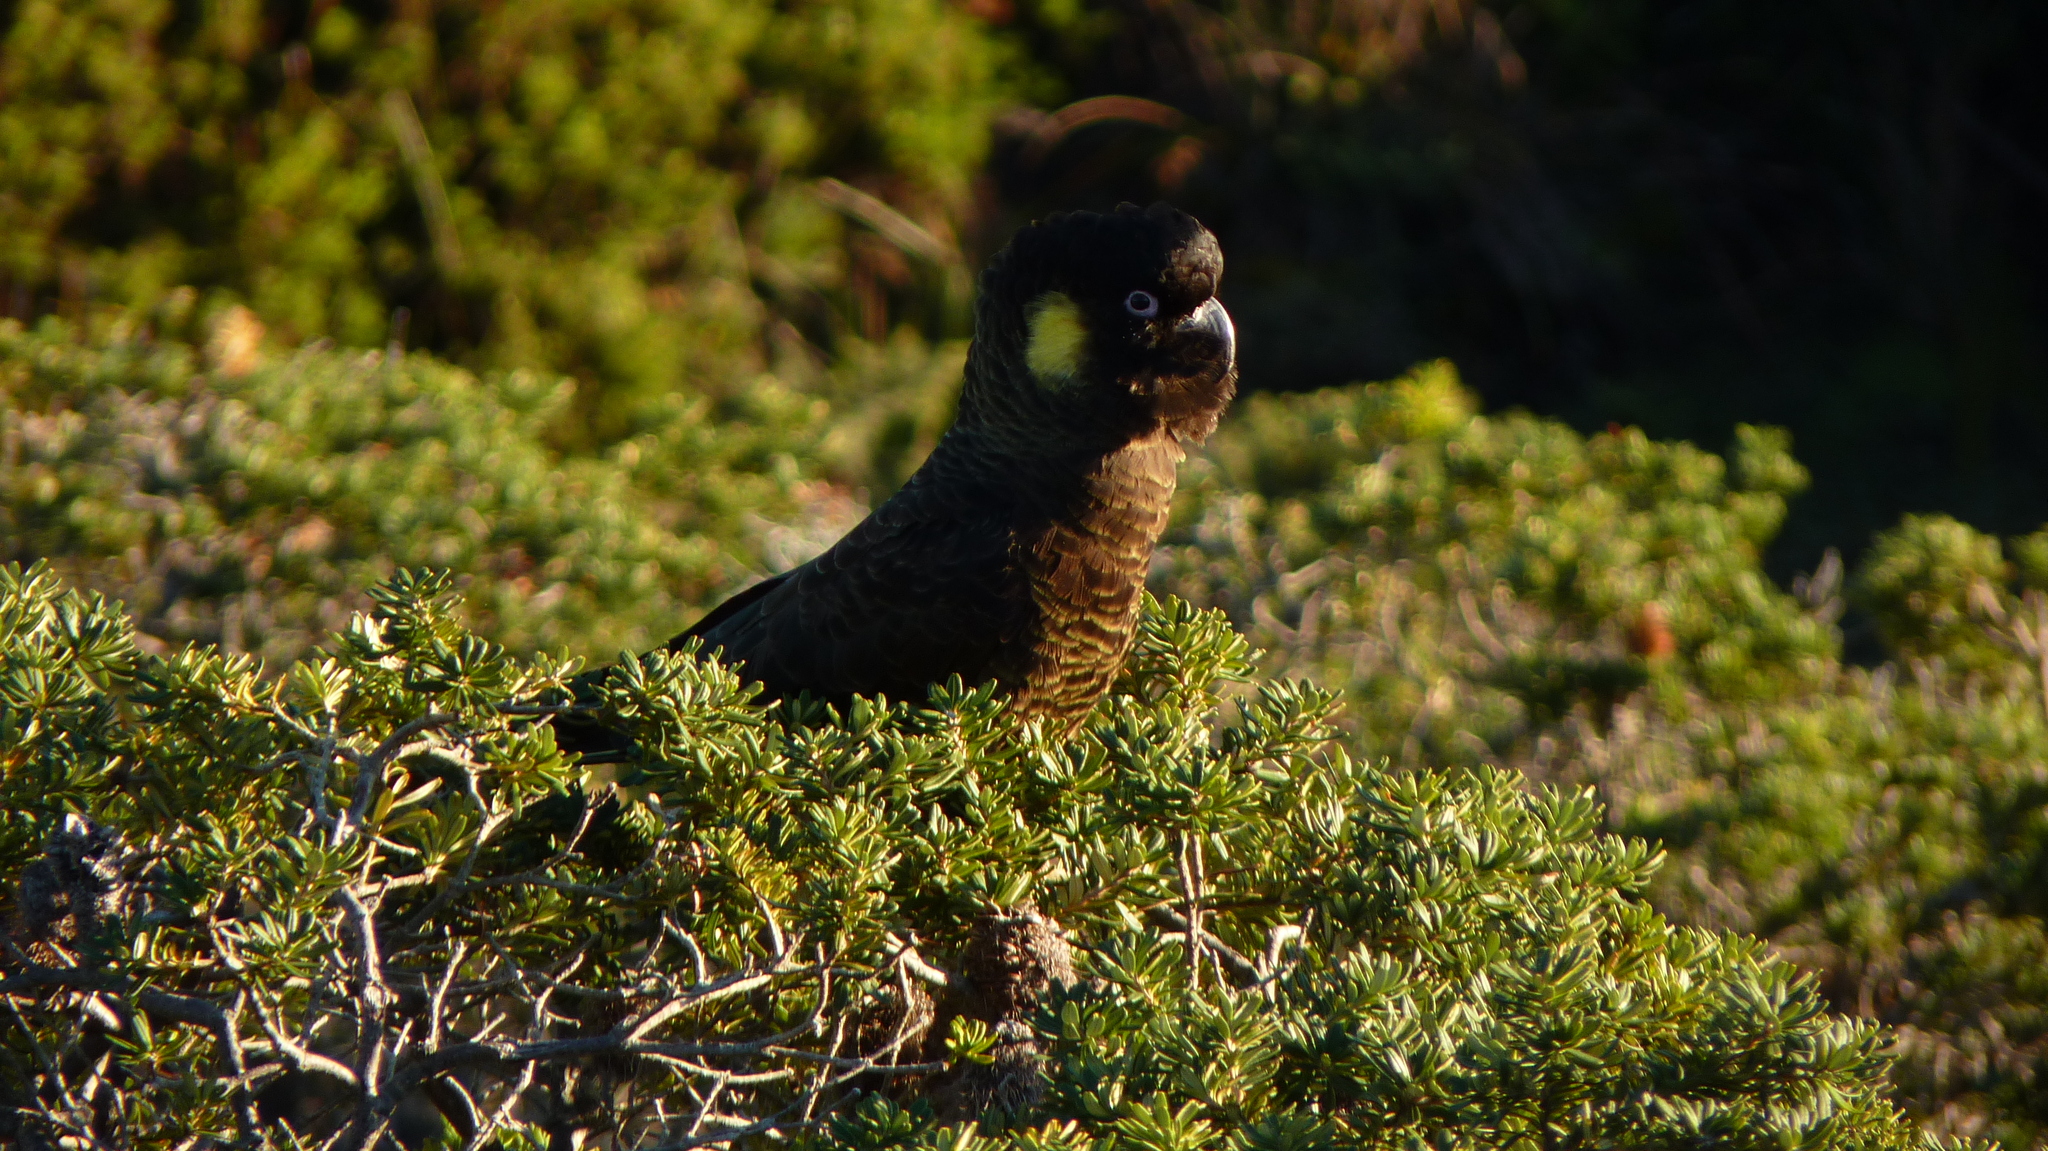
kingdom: Animalia
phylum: Chordata
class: Aves
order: Psittaciformes
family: Cacatuidae
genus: Zanda
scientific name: Zanda funerea
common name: Yellow-tailed black-cockatoo
